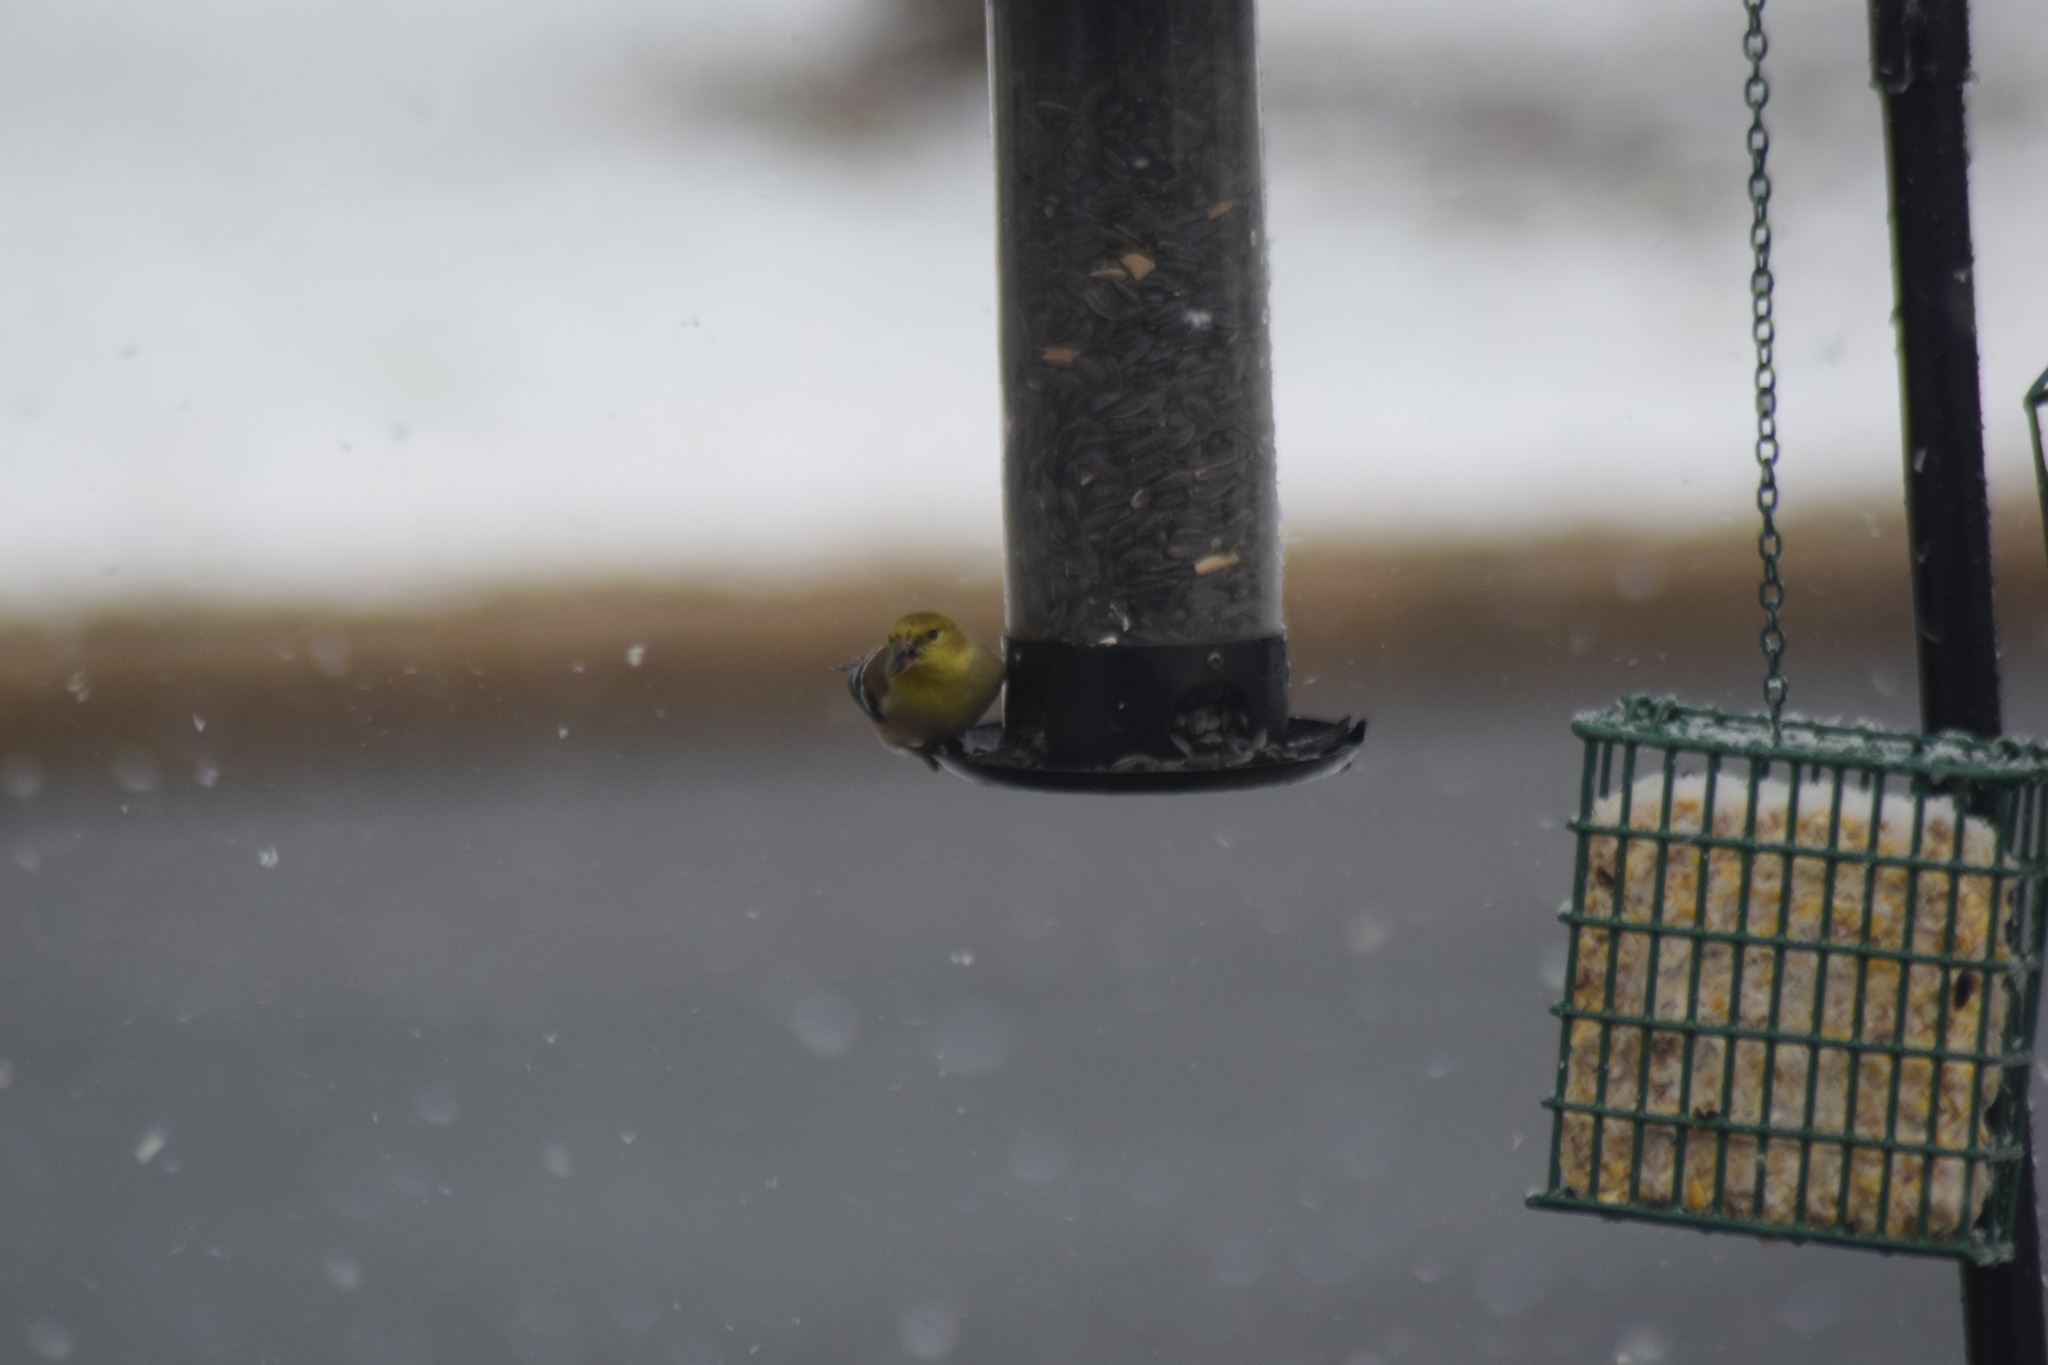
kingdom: Animalia
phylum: Chordata
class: Aves
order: Passeriformes
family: Fringillidae
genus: Spinus
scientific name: Spinus tristis
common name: American goldfinch
